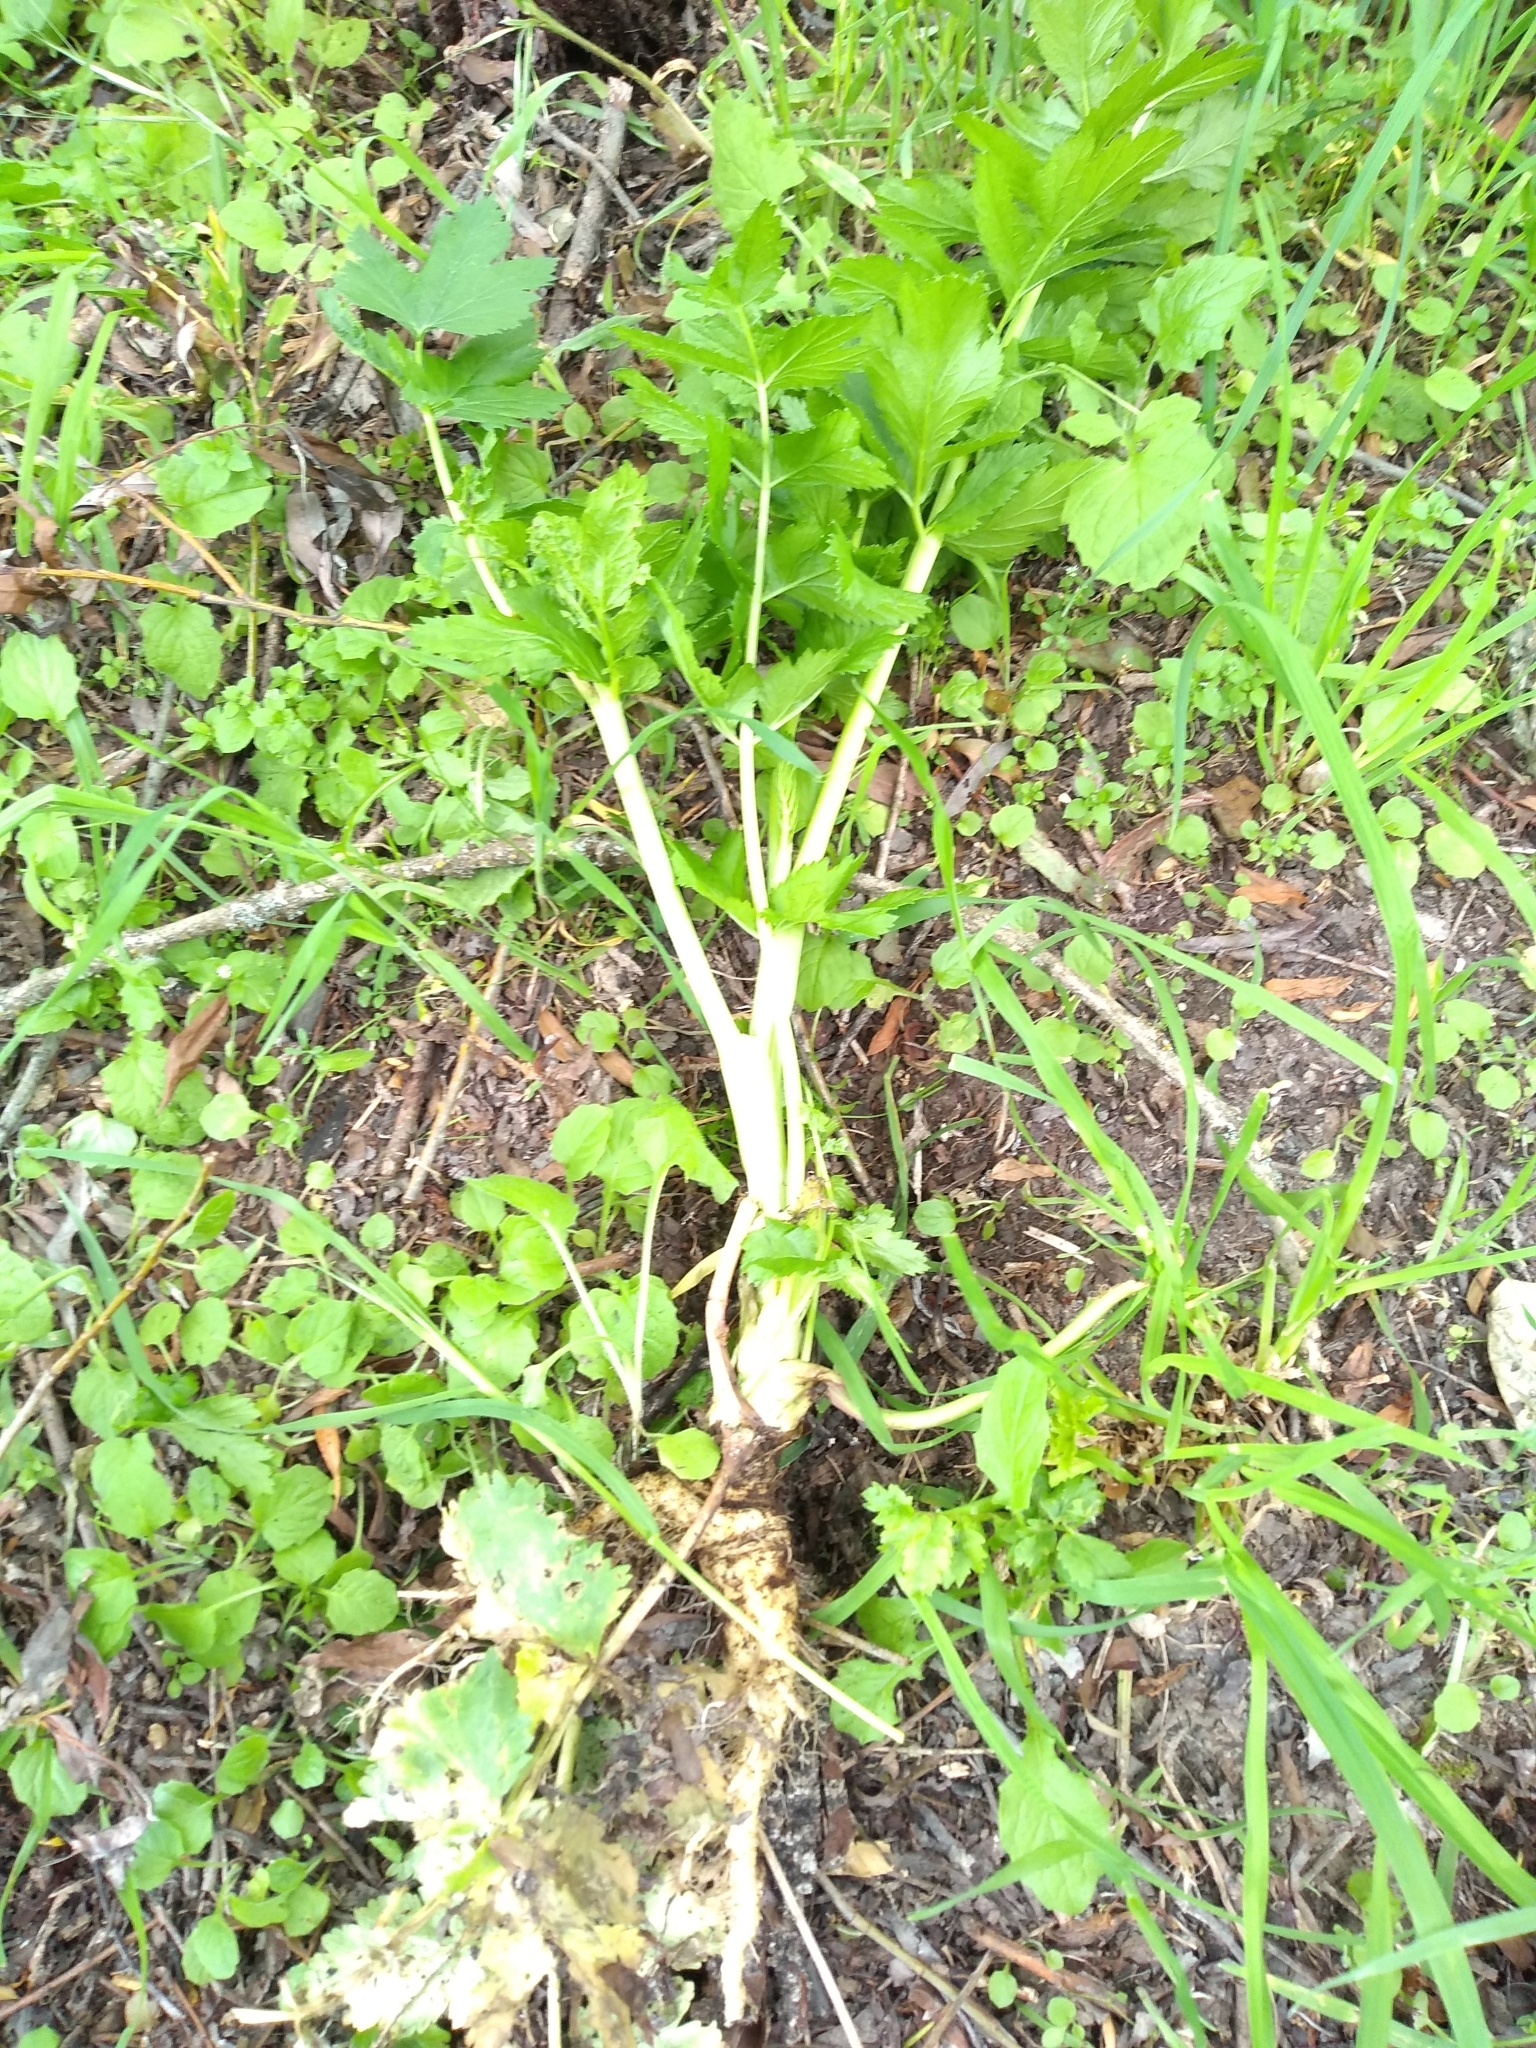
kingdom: Plantae
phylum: Tracheophyta
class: Magnoliopsida
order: Apiales
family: Apiaceae
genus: Pastinaca
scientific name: Pastinaca sativa
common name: Wild parsnip
